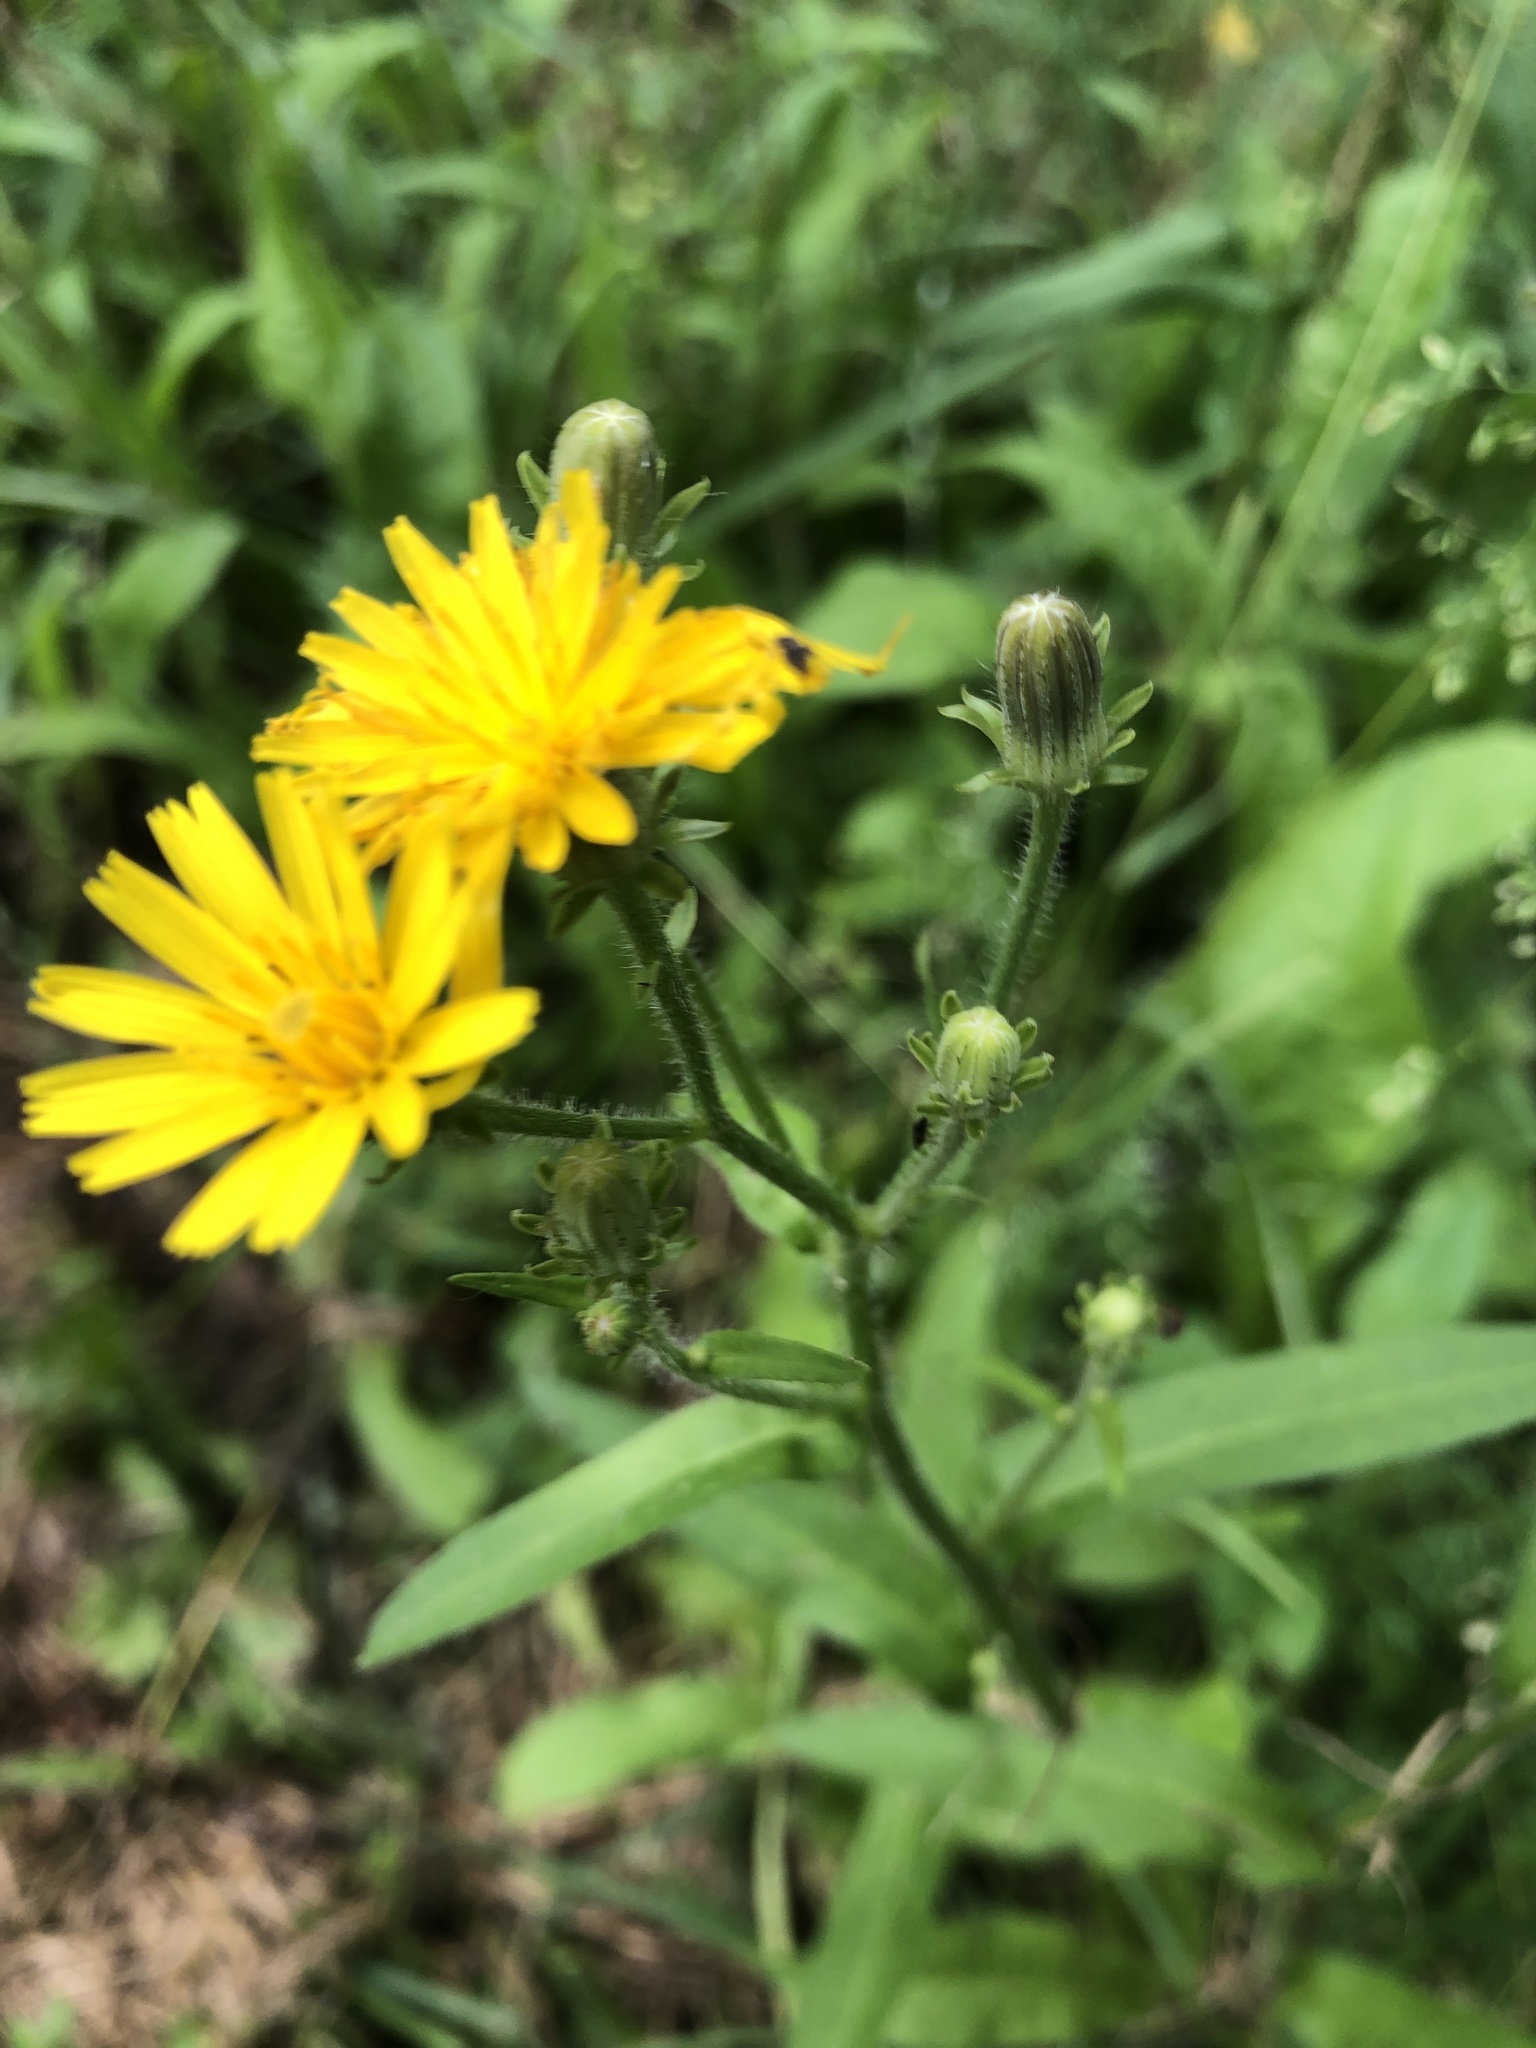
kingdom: Plantae
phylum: Tracheophyta
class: Magnoliopsida
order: Asterales
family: Asteraceae
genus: Picris
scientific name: Picris hieracioides
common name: Hawkweed oxtongue
